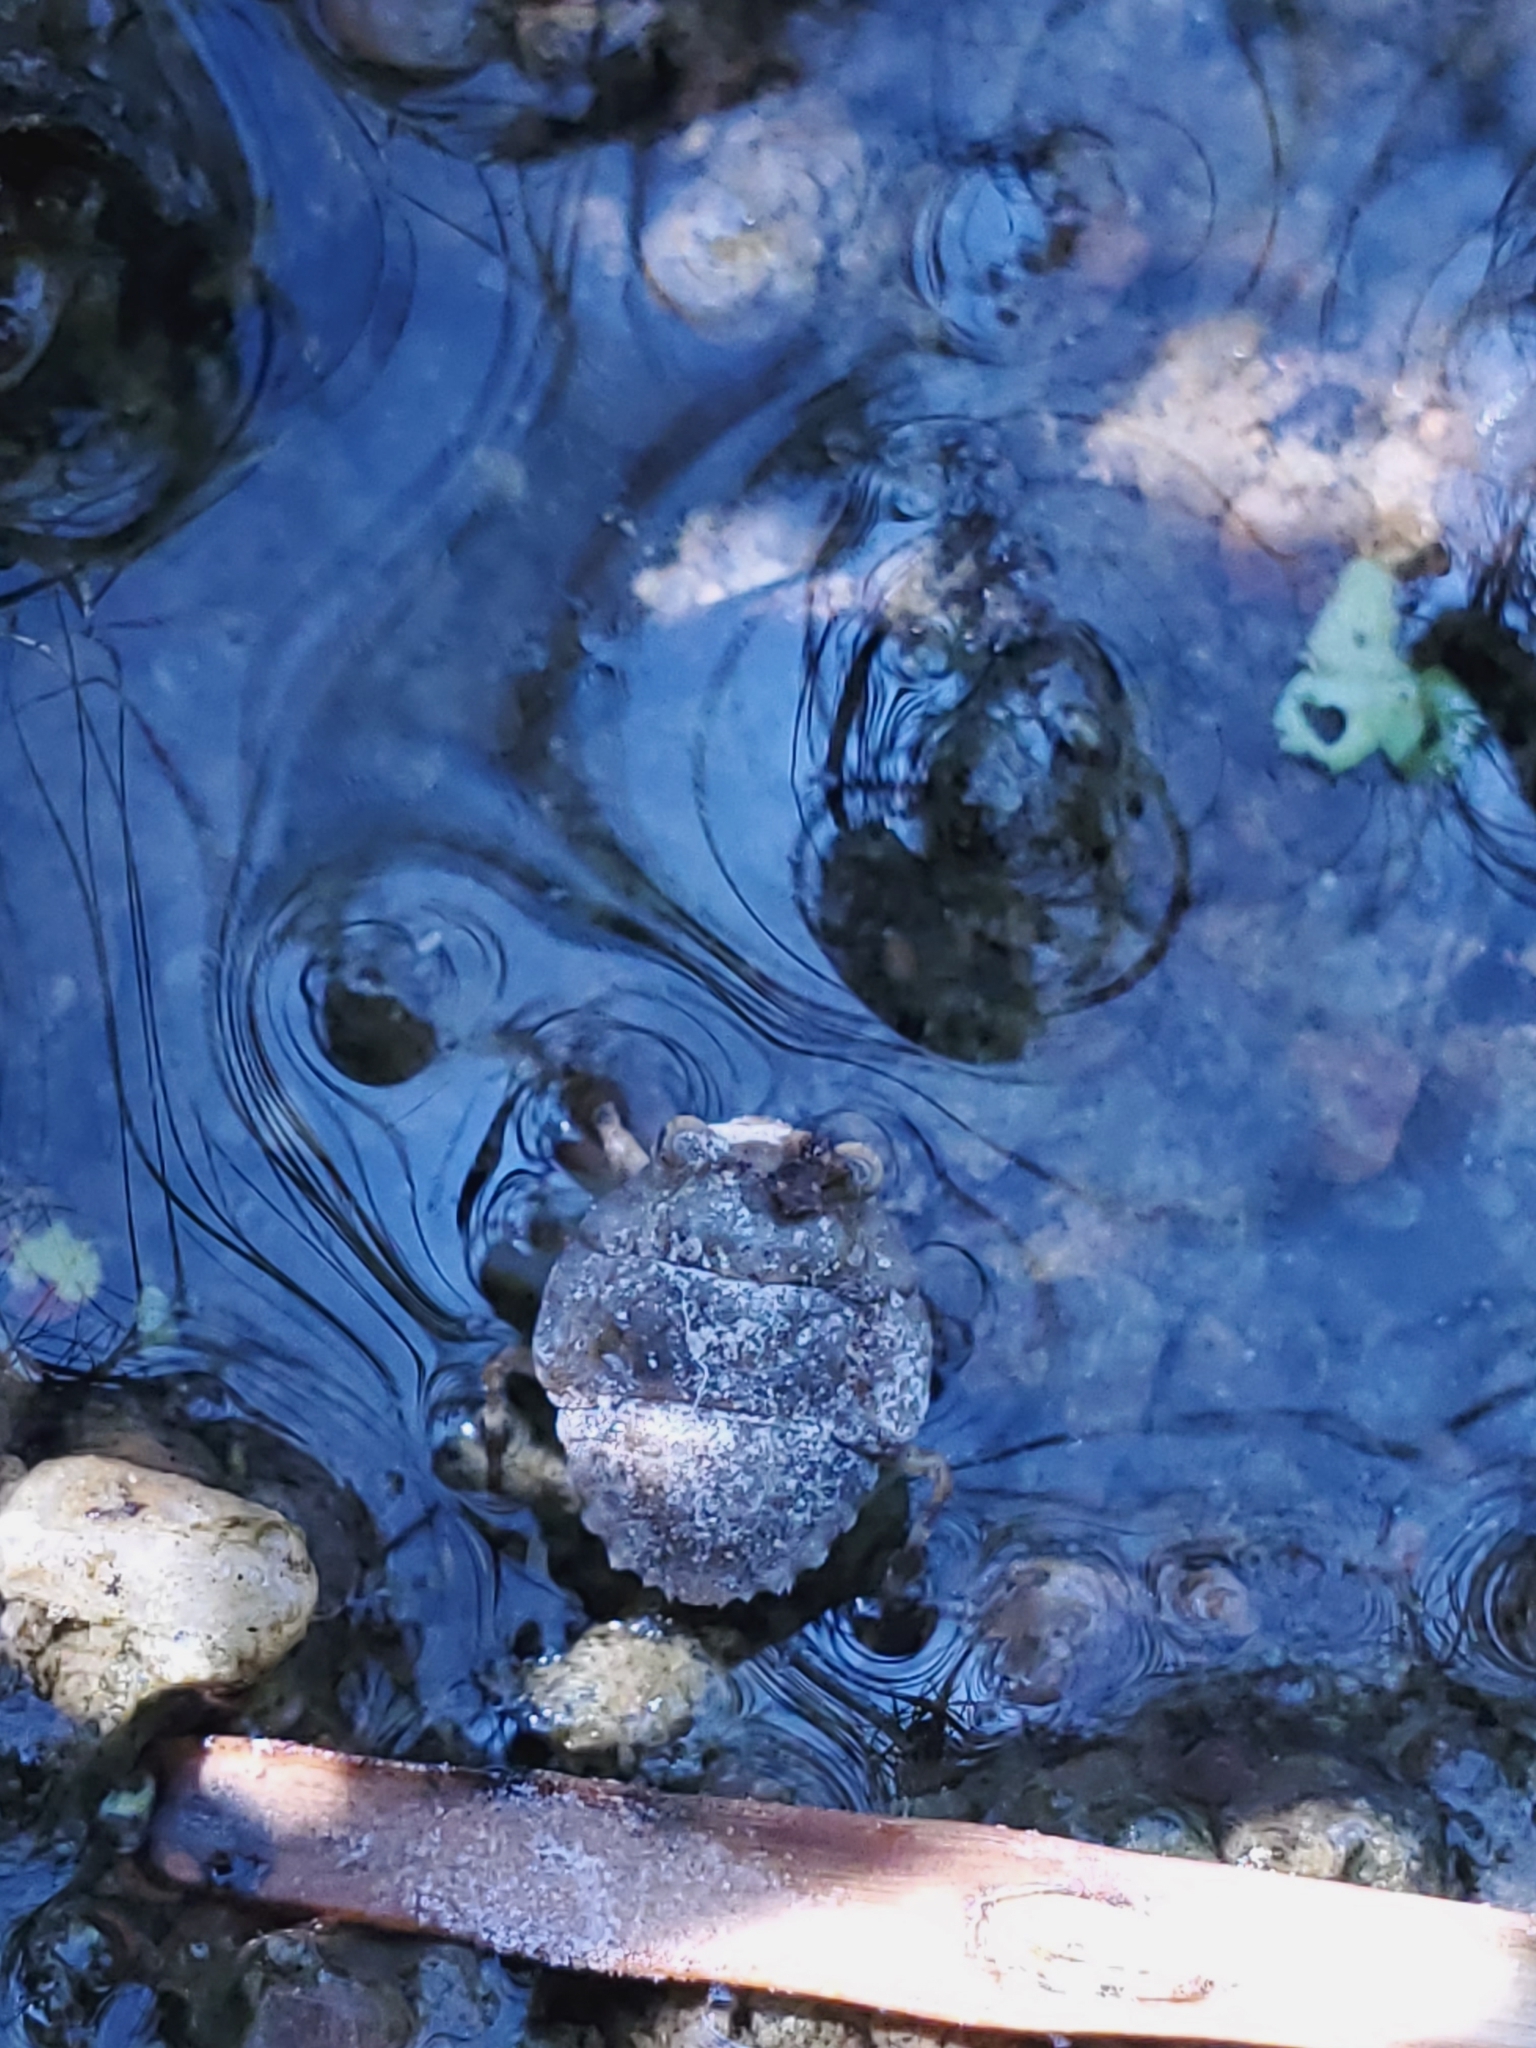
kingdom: Animalia
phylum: Arthropoda
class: Insecta
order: Hemiptera
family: Gelastocoridae
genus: Gelastocoris
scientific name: Gelastocoris oculatus
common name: Toad bug
